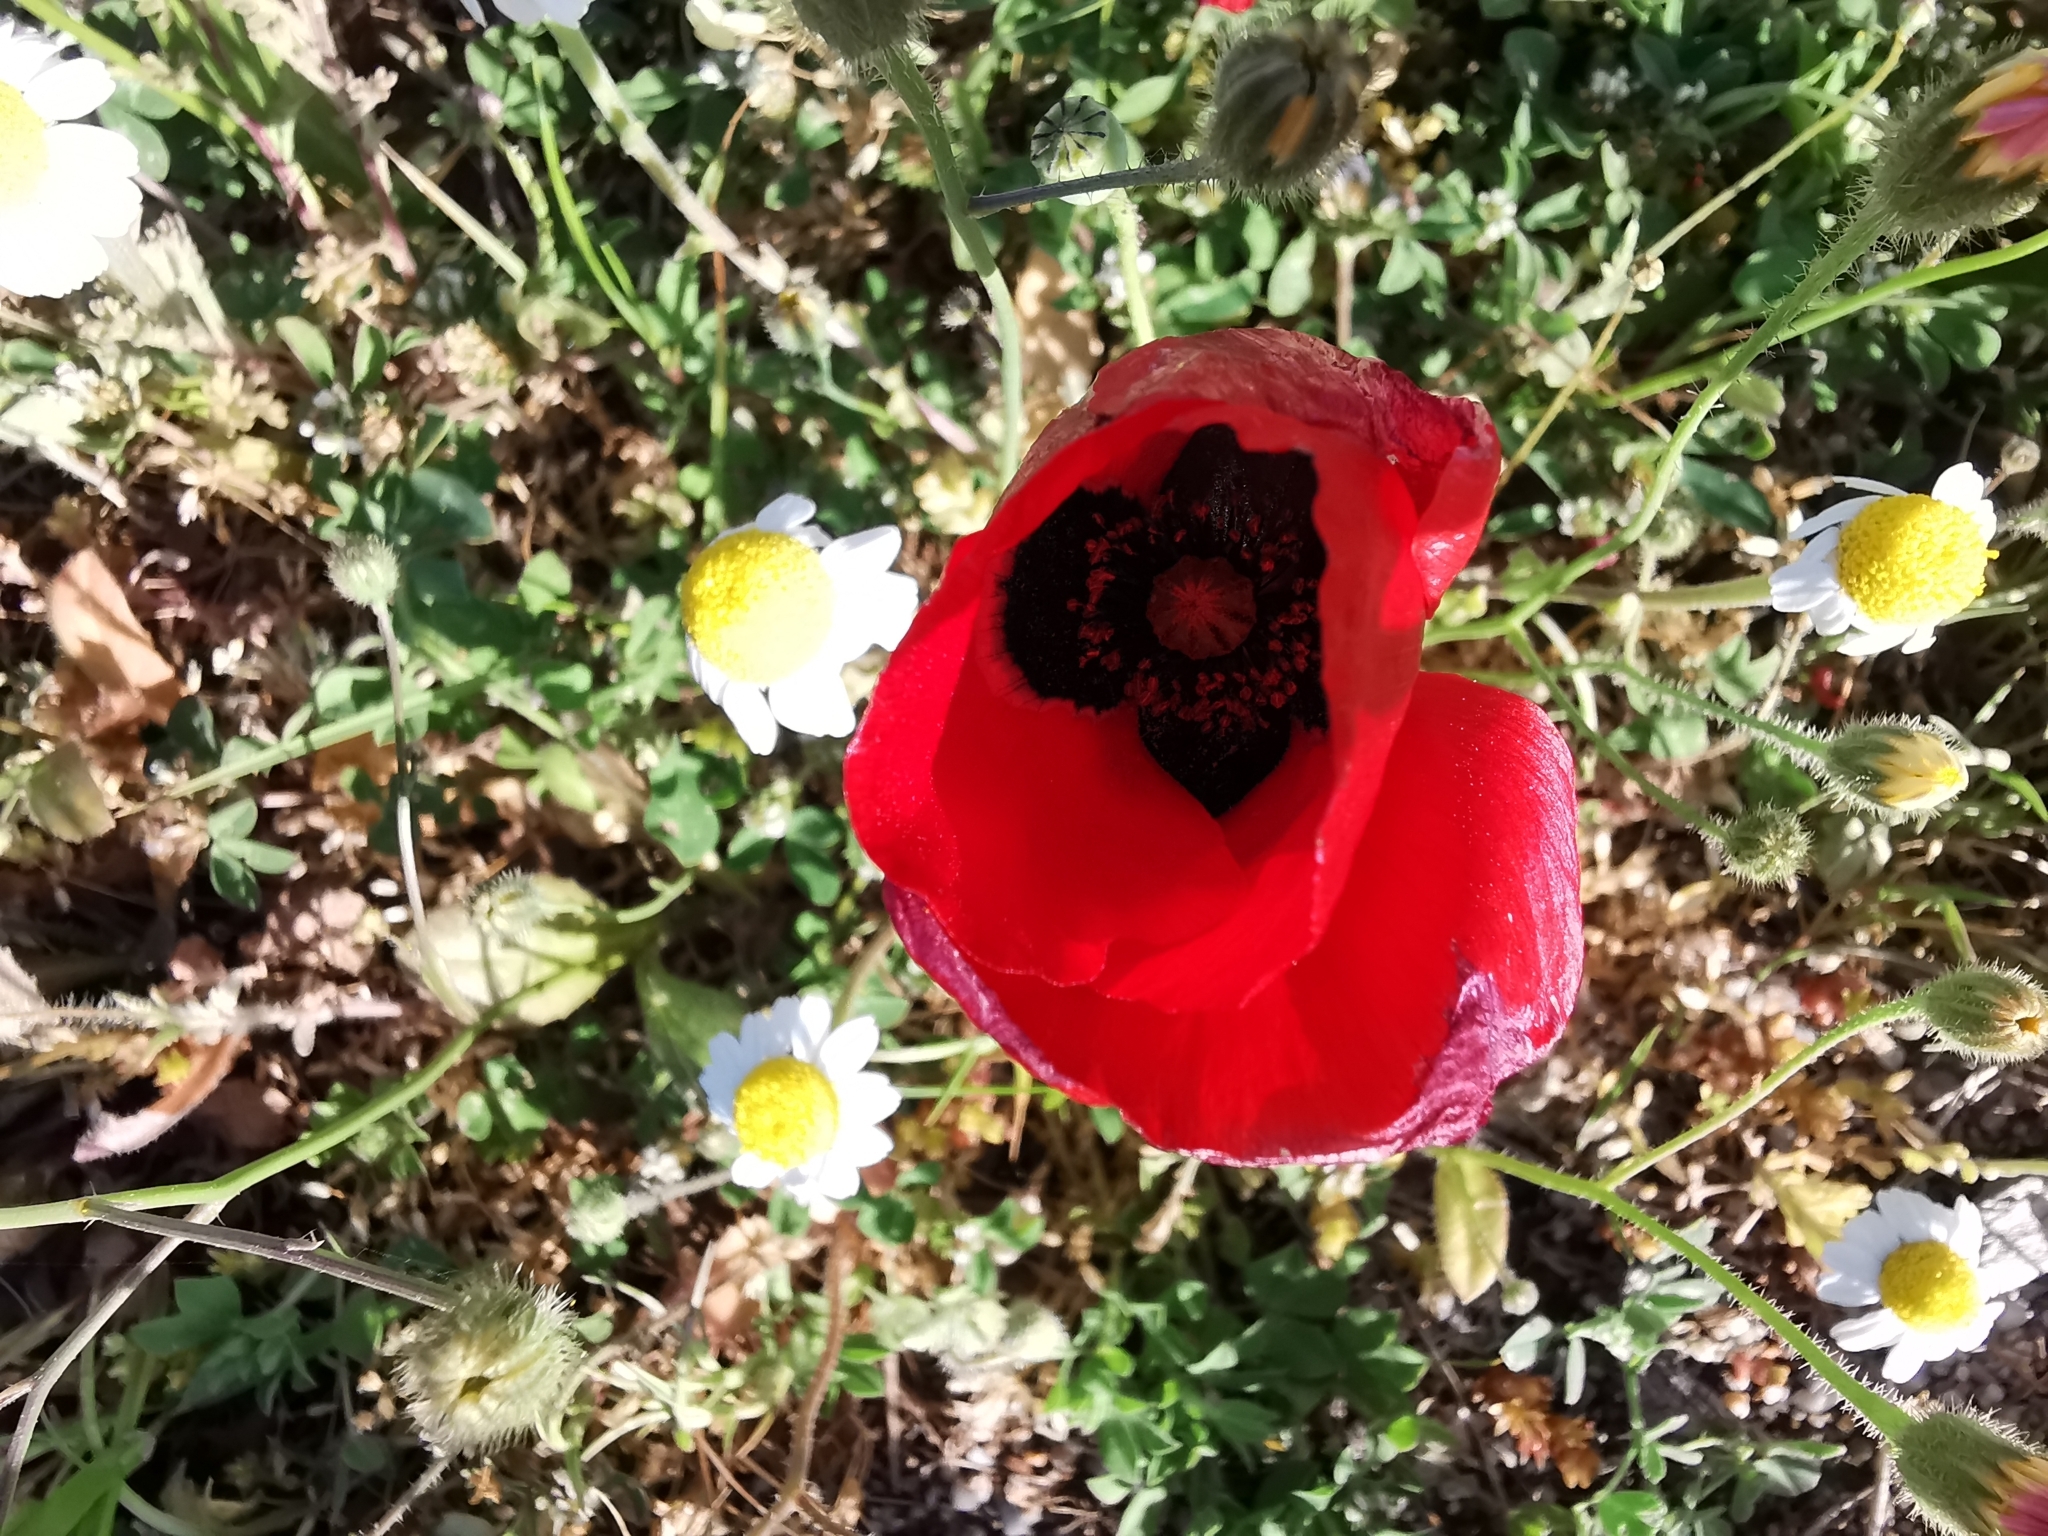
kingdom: Plantae
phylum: Tracheophyta
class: Magnoliopsida
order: Ranunculales
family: Papaveraceae
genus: Papaver
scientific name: Papaver rhoeas
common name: Corn poppy
